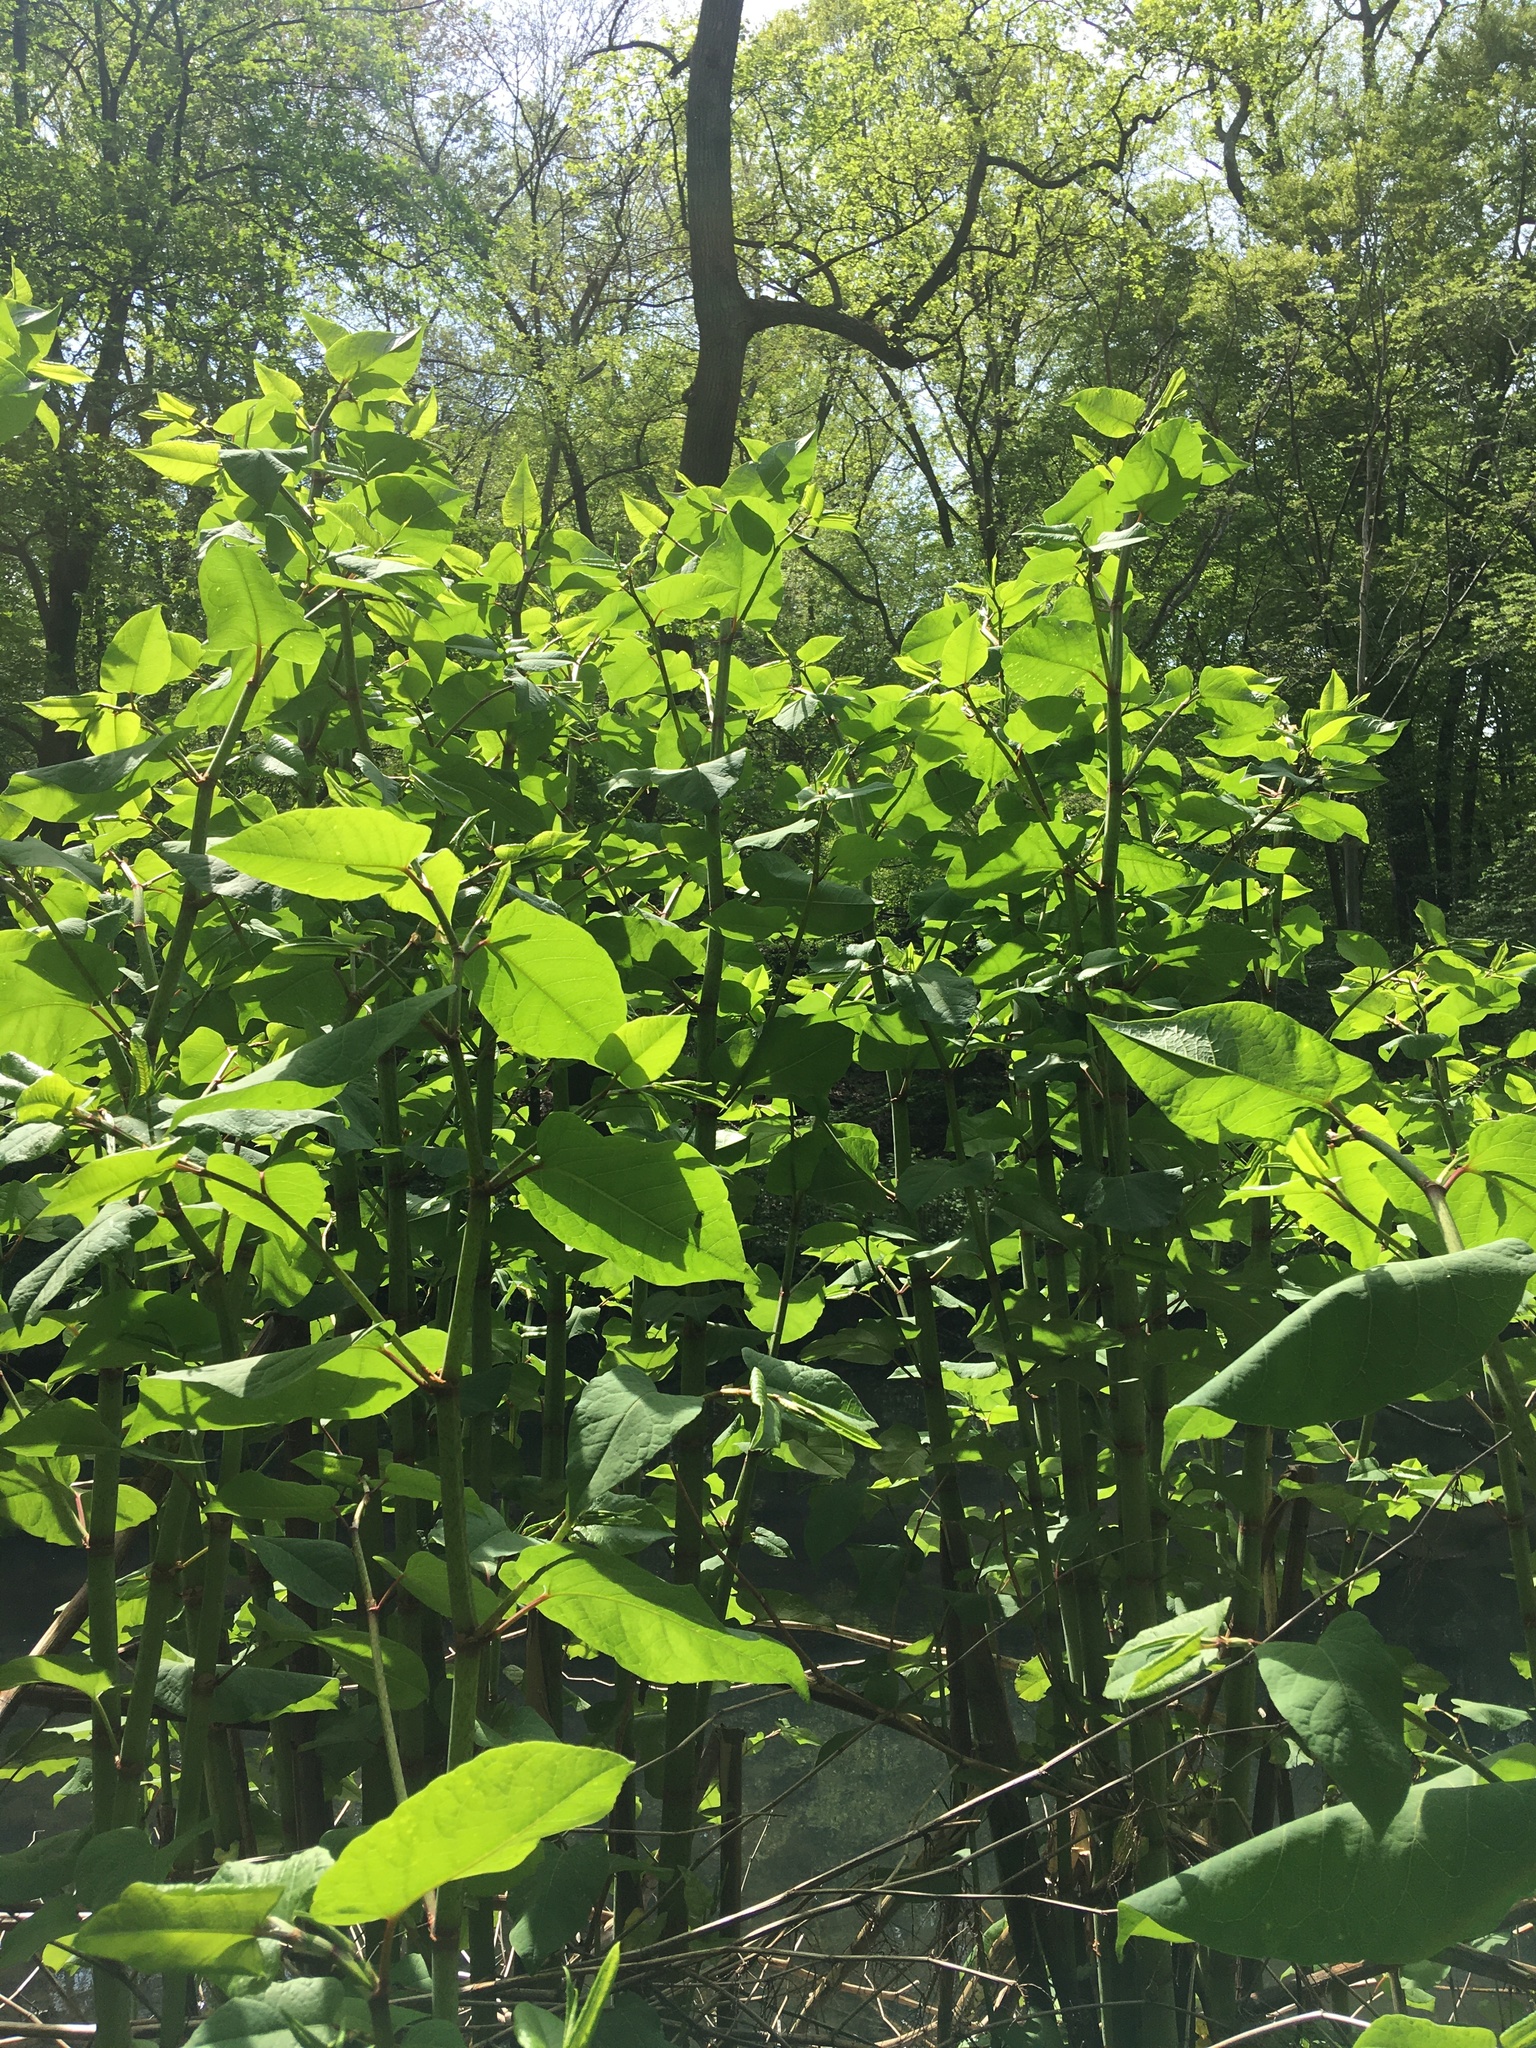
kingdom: Plantae
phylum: Tracheophyta
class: Magnoliopsida
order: Caryophyllales
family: Polygonaceae
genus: Reynoutria
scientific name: Reynoutria japonica
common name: Japanese knotweed
